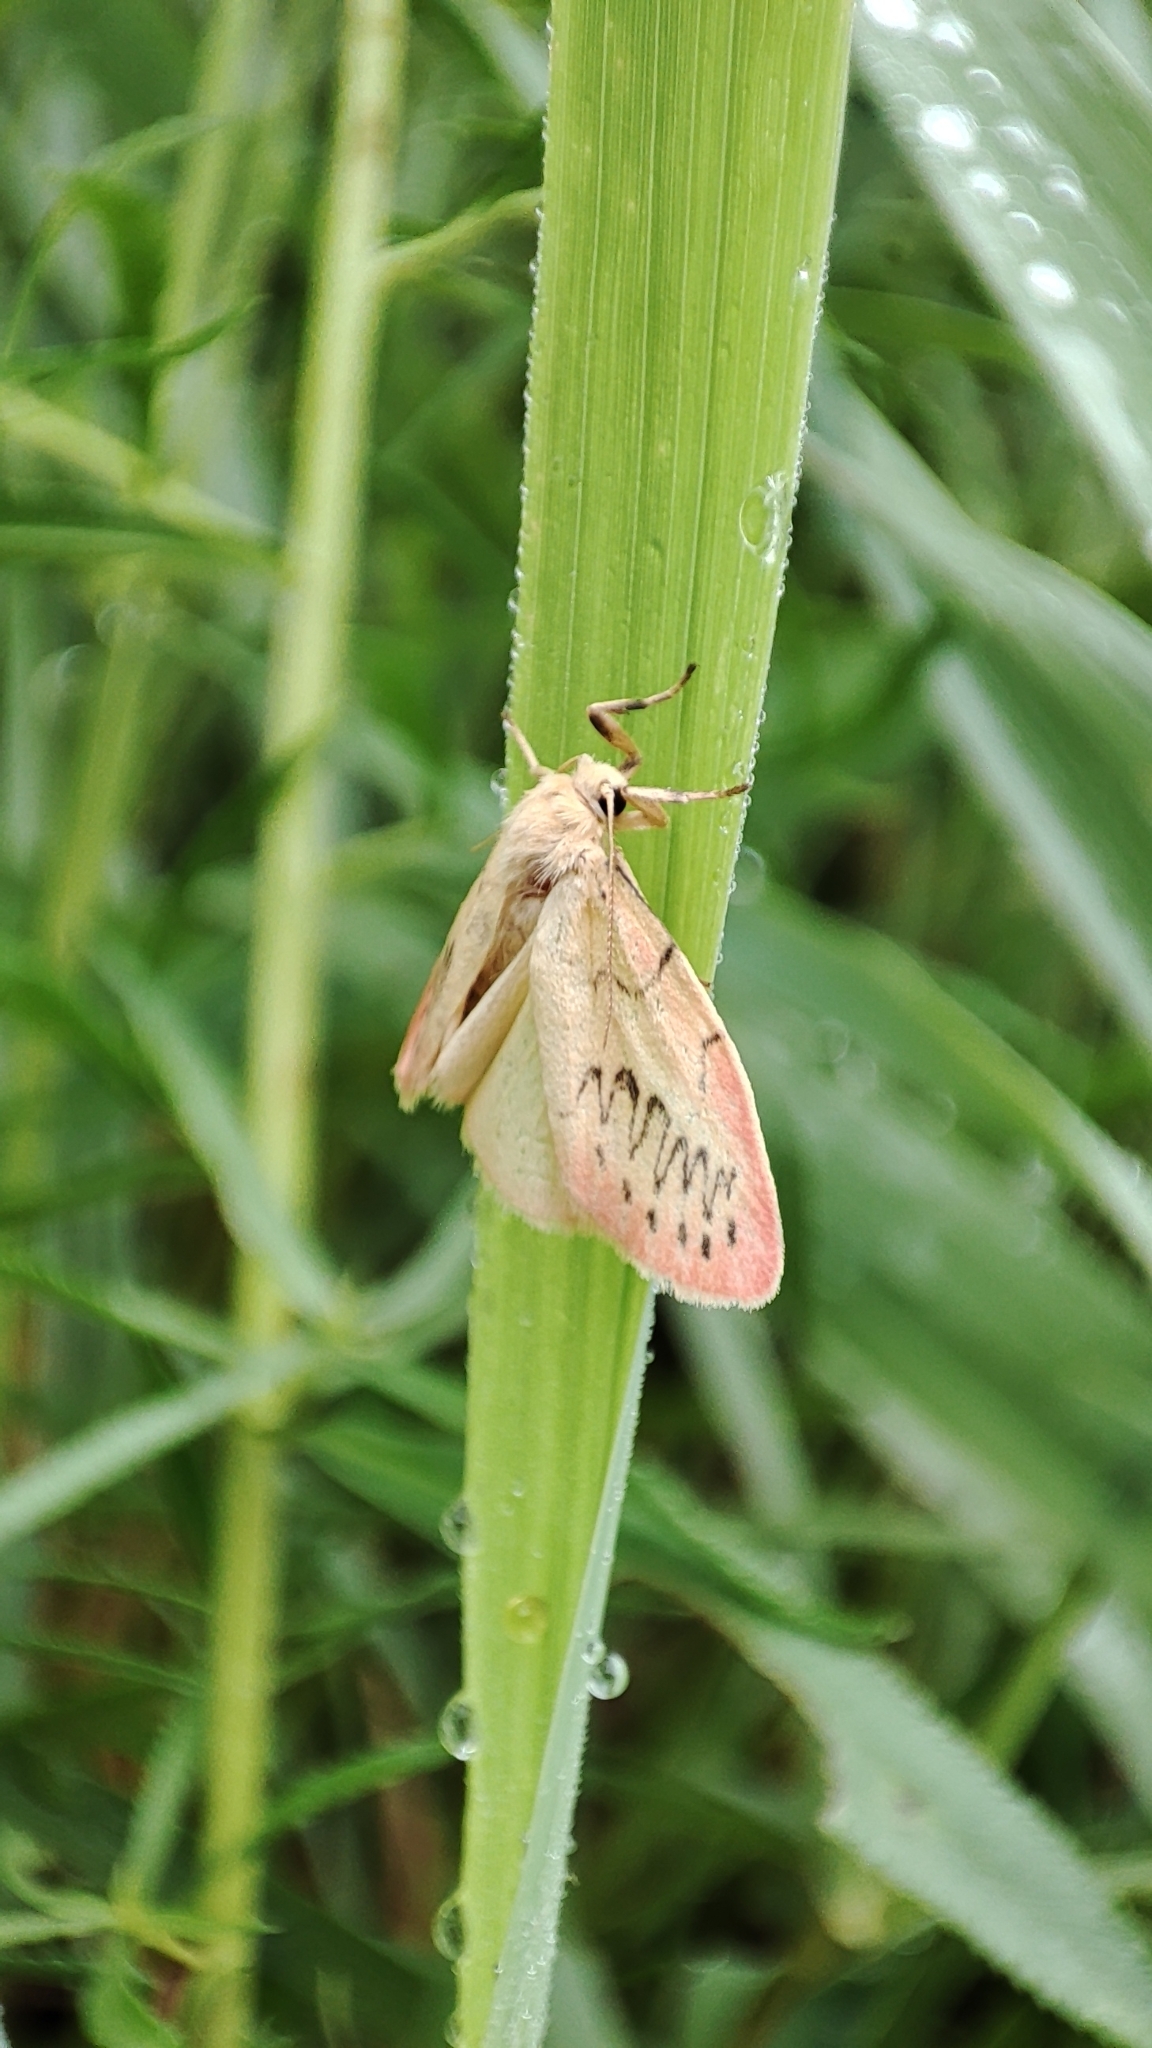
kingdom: Animalia
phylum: Arthropoda
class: Insecta
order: Lepidoptera
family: Erebidae
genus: Miltochrista
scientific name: Miltochrista miniata
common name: Rosy footman
